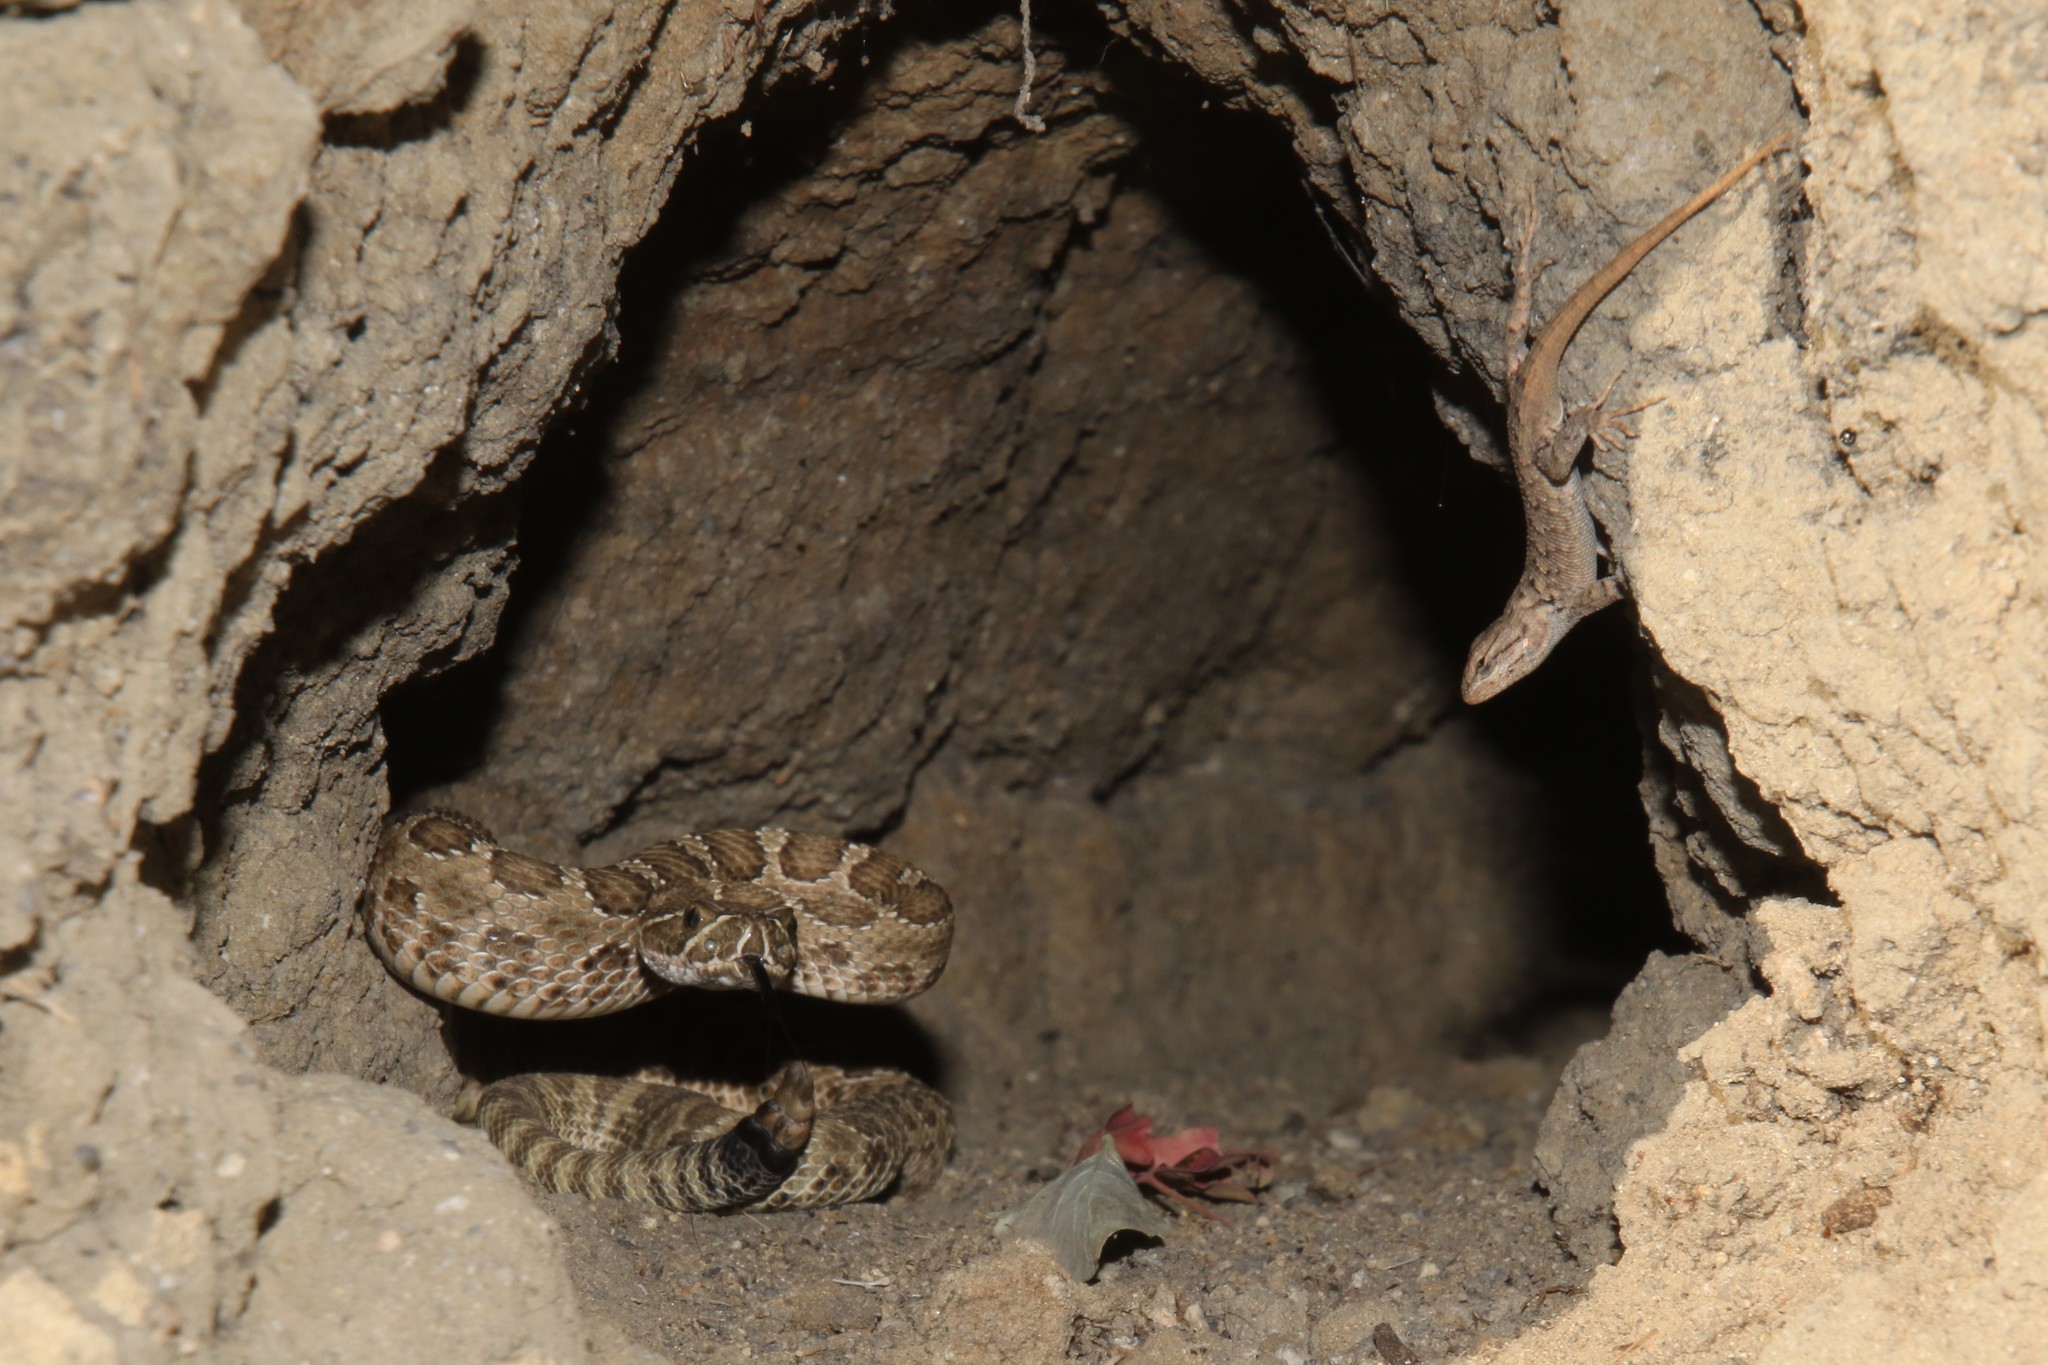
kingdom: Animalia
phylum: Chordata
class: Squamata
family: Phrynosomatidae
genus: Sceloporus
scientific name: Sceloporus consobrinus
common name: Southern prairie lizard
